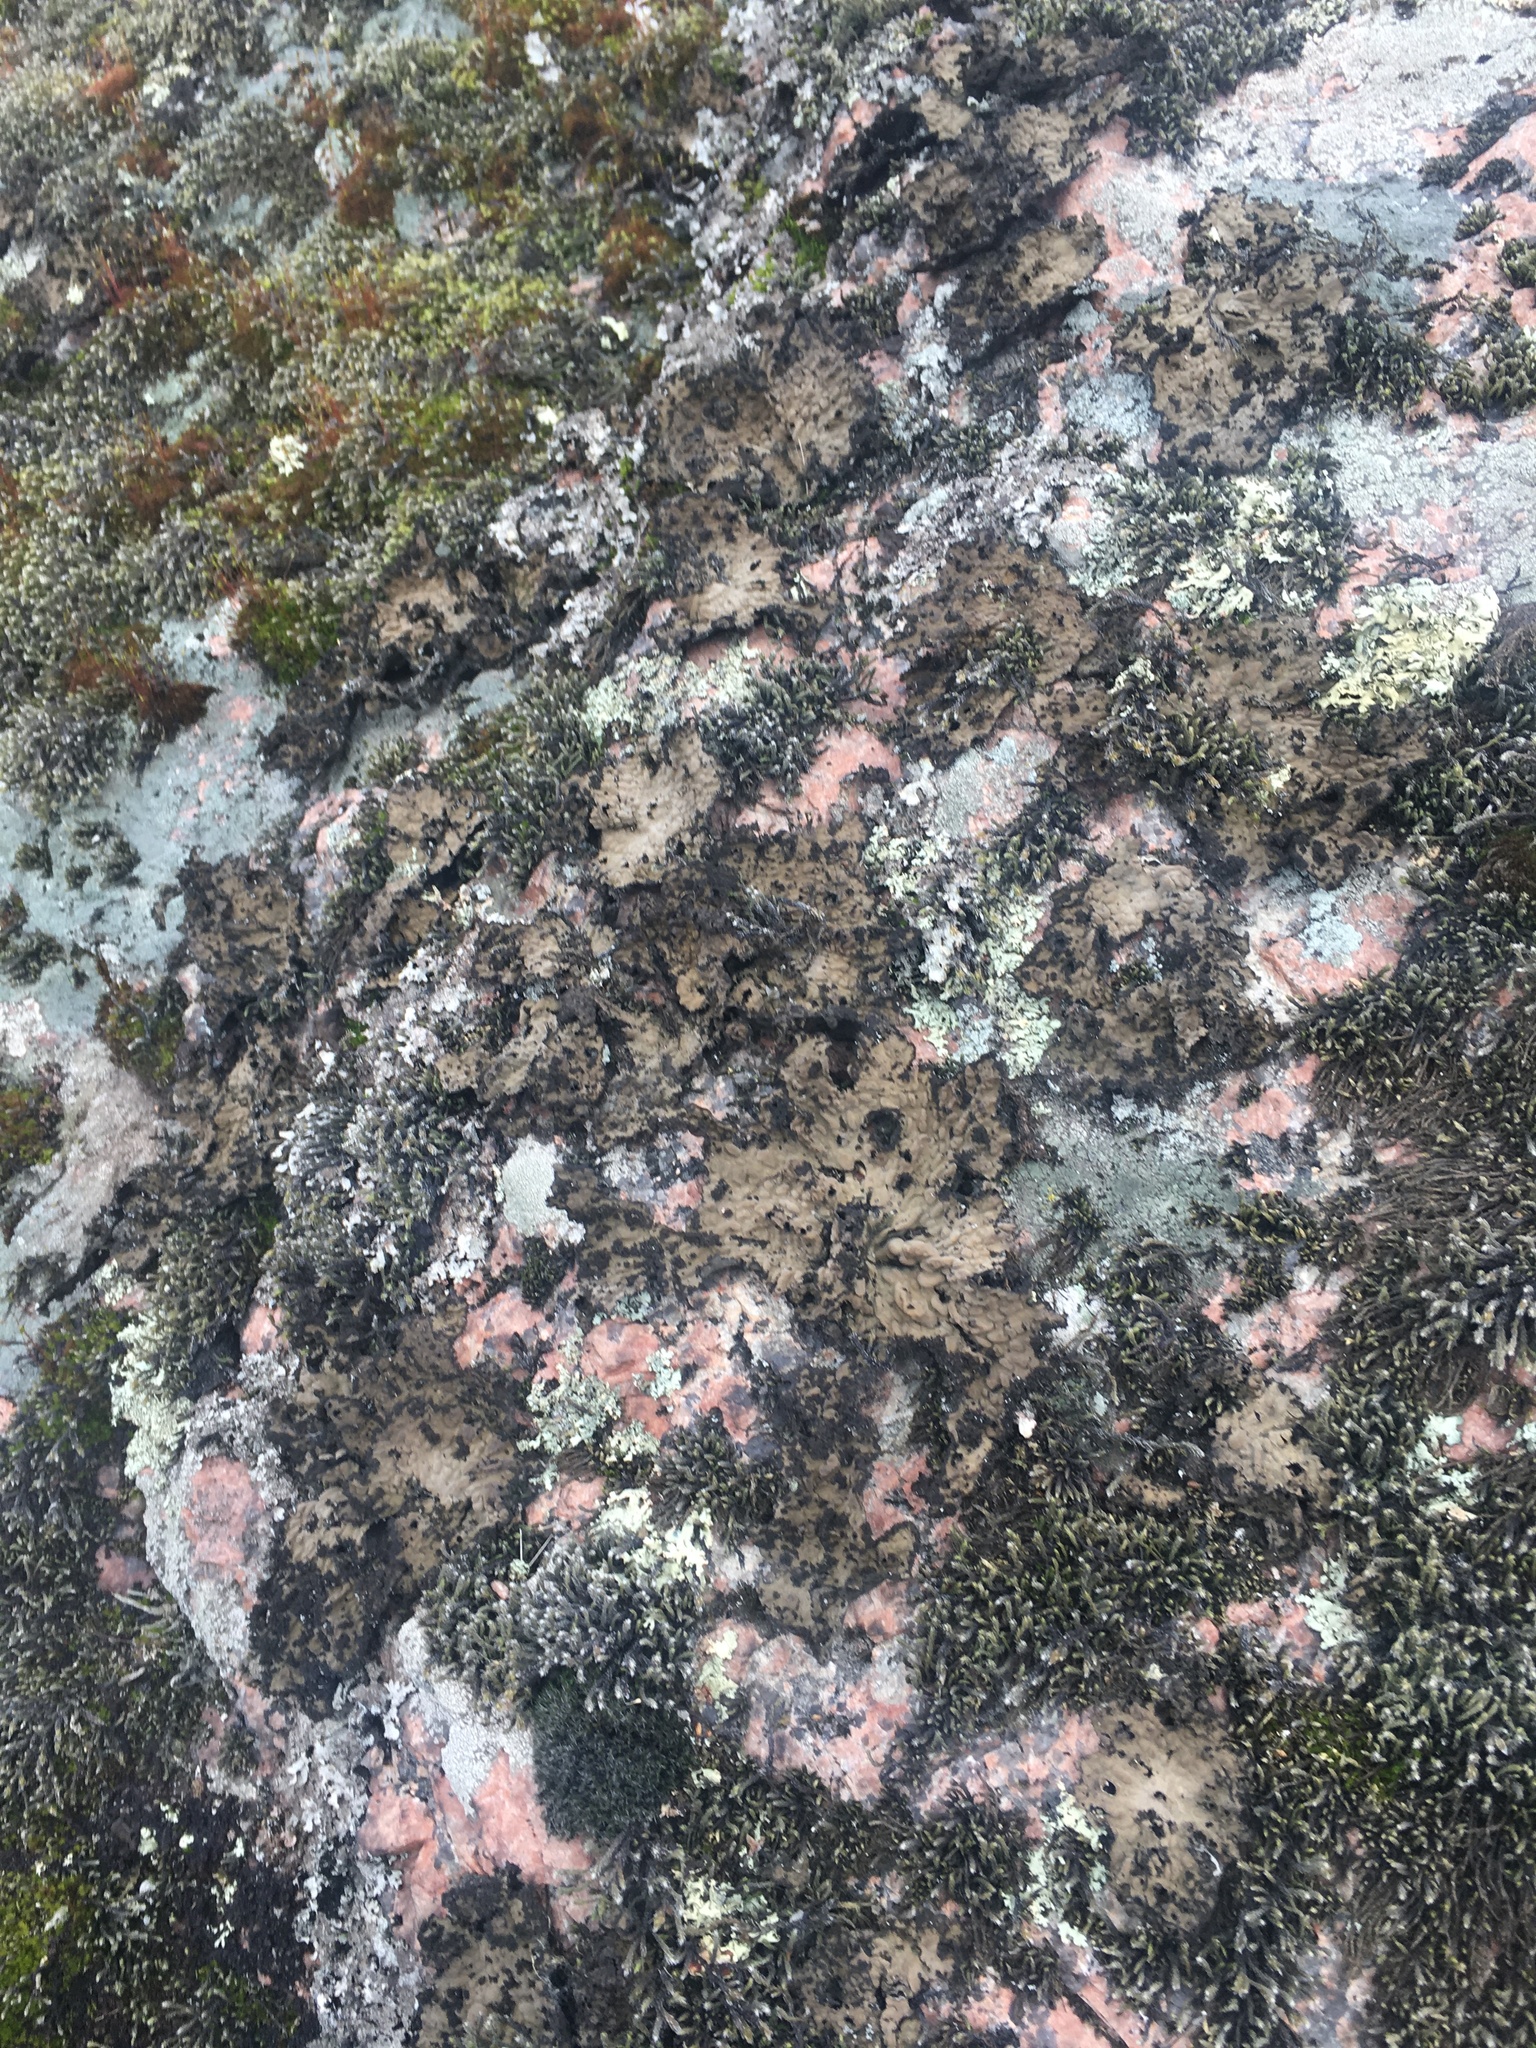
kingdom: Fungi
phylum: Ascomycota
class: Lecanoromycetes
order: Umbilicariales
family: Umbilicariaceae
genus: Lasallia
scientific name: Lasallia pustulata
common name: Blistered toadskin lichen
